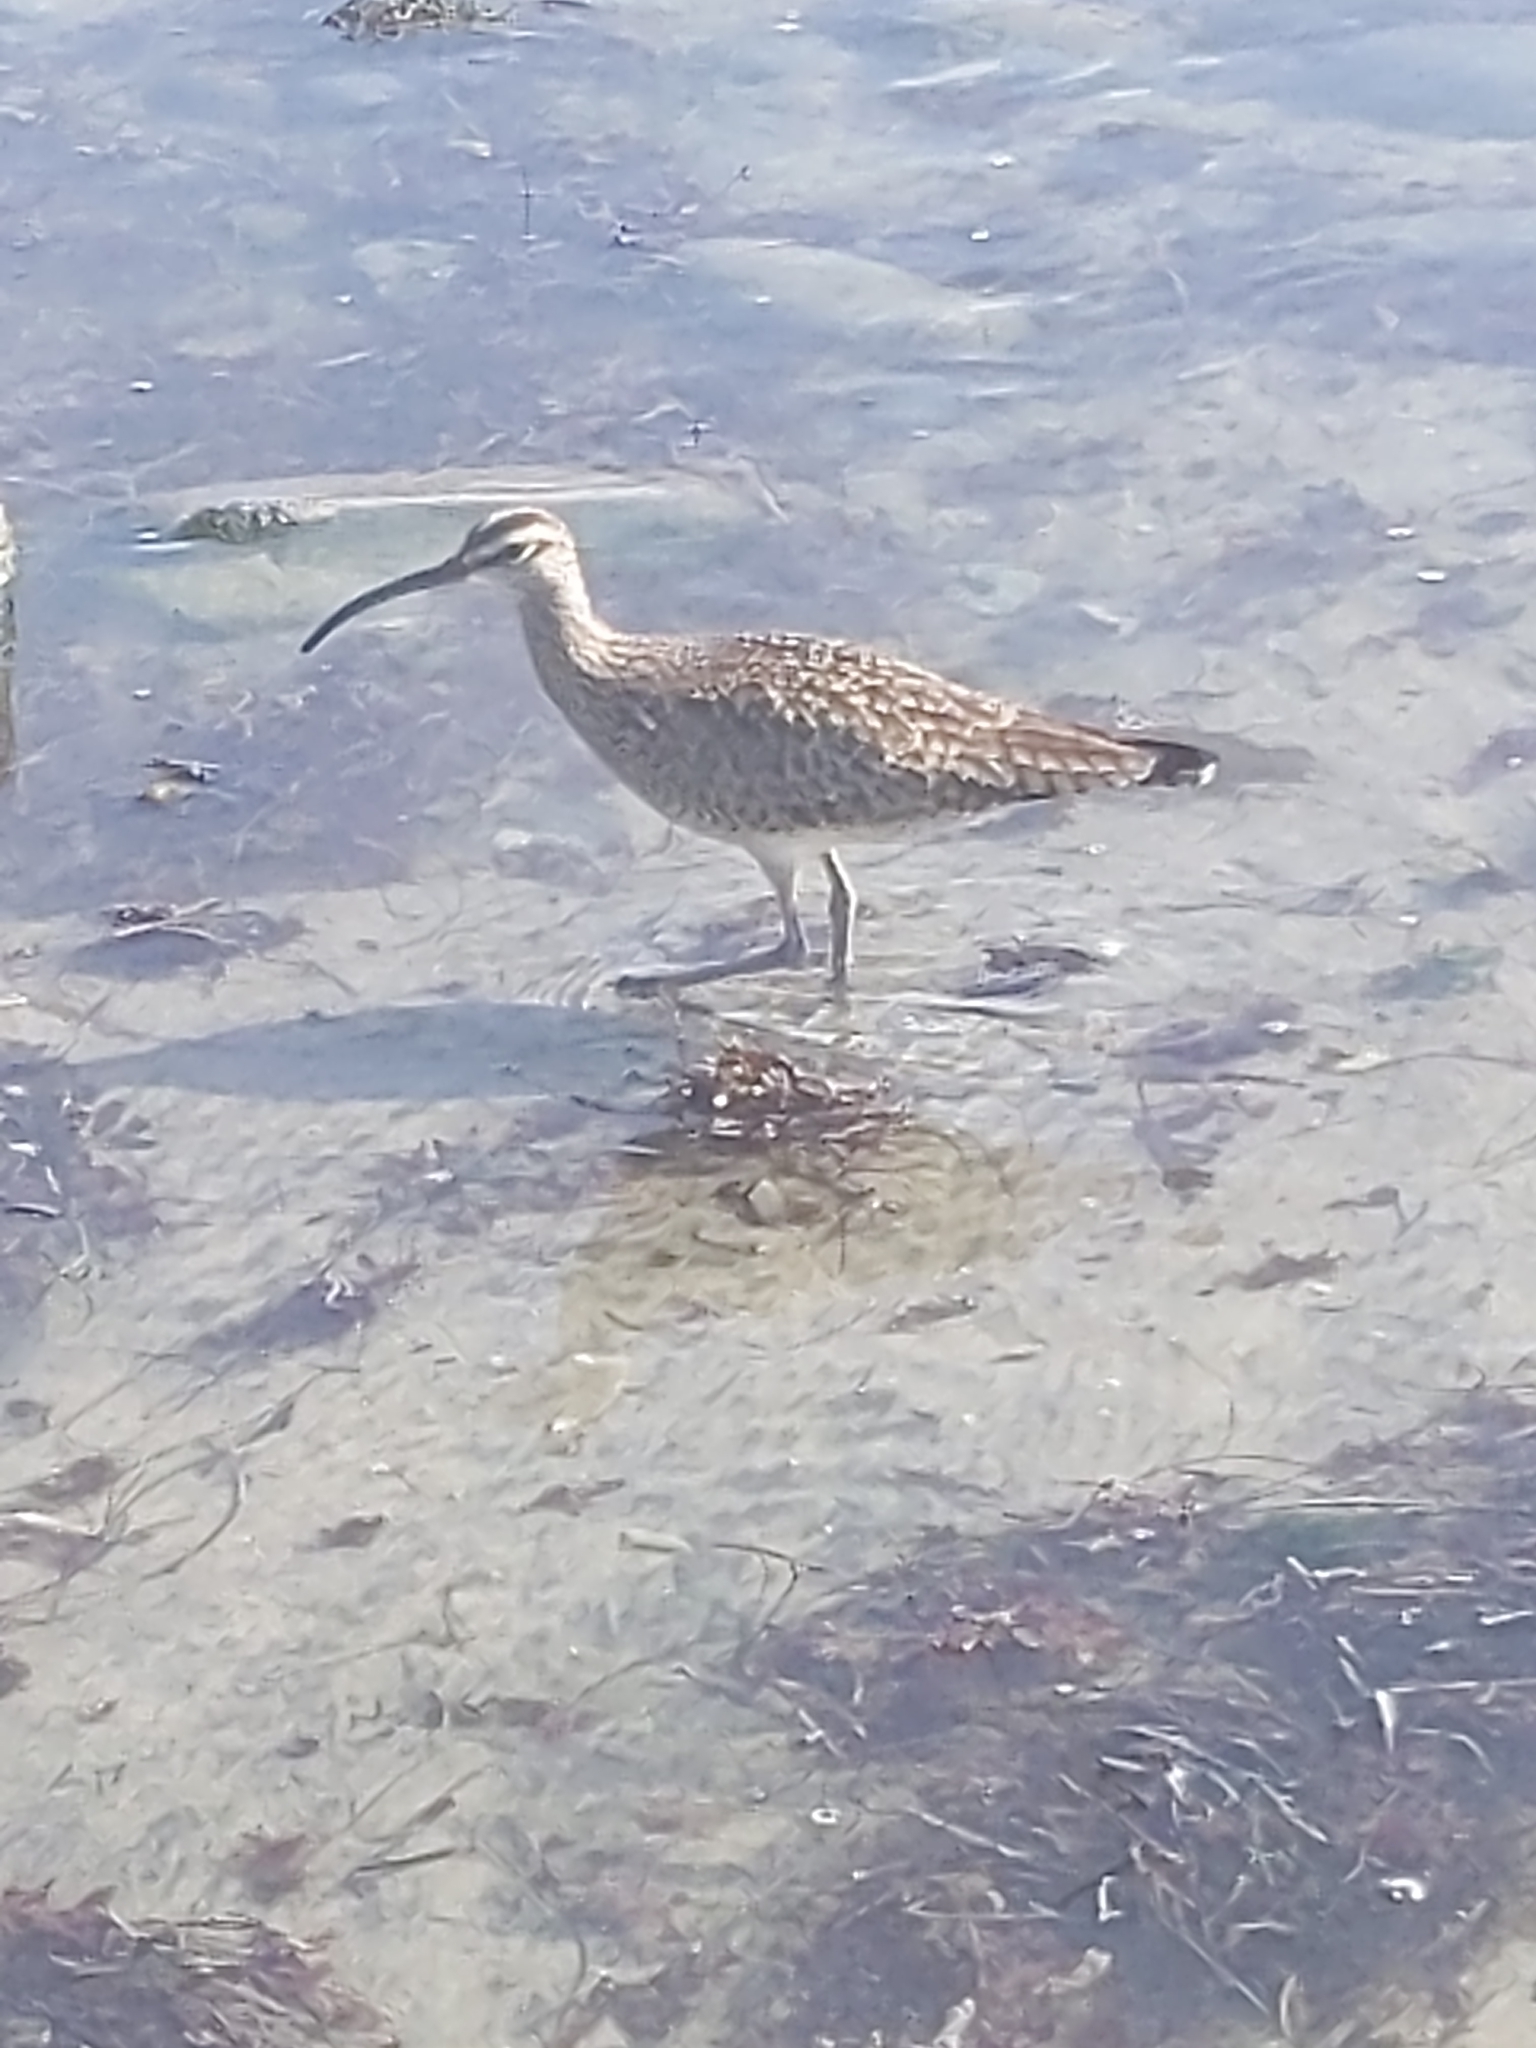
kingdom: Animalia
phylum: Chordata
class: Aves
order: Charadriiformes
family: Scolopacidae
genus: Numenius
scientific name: Numenius phaeopus
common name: Whimbrel
